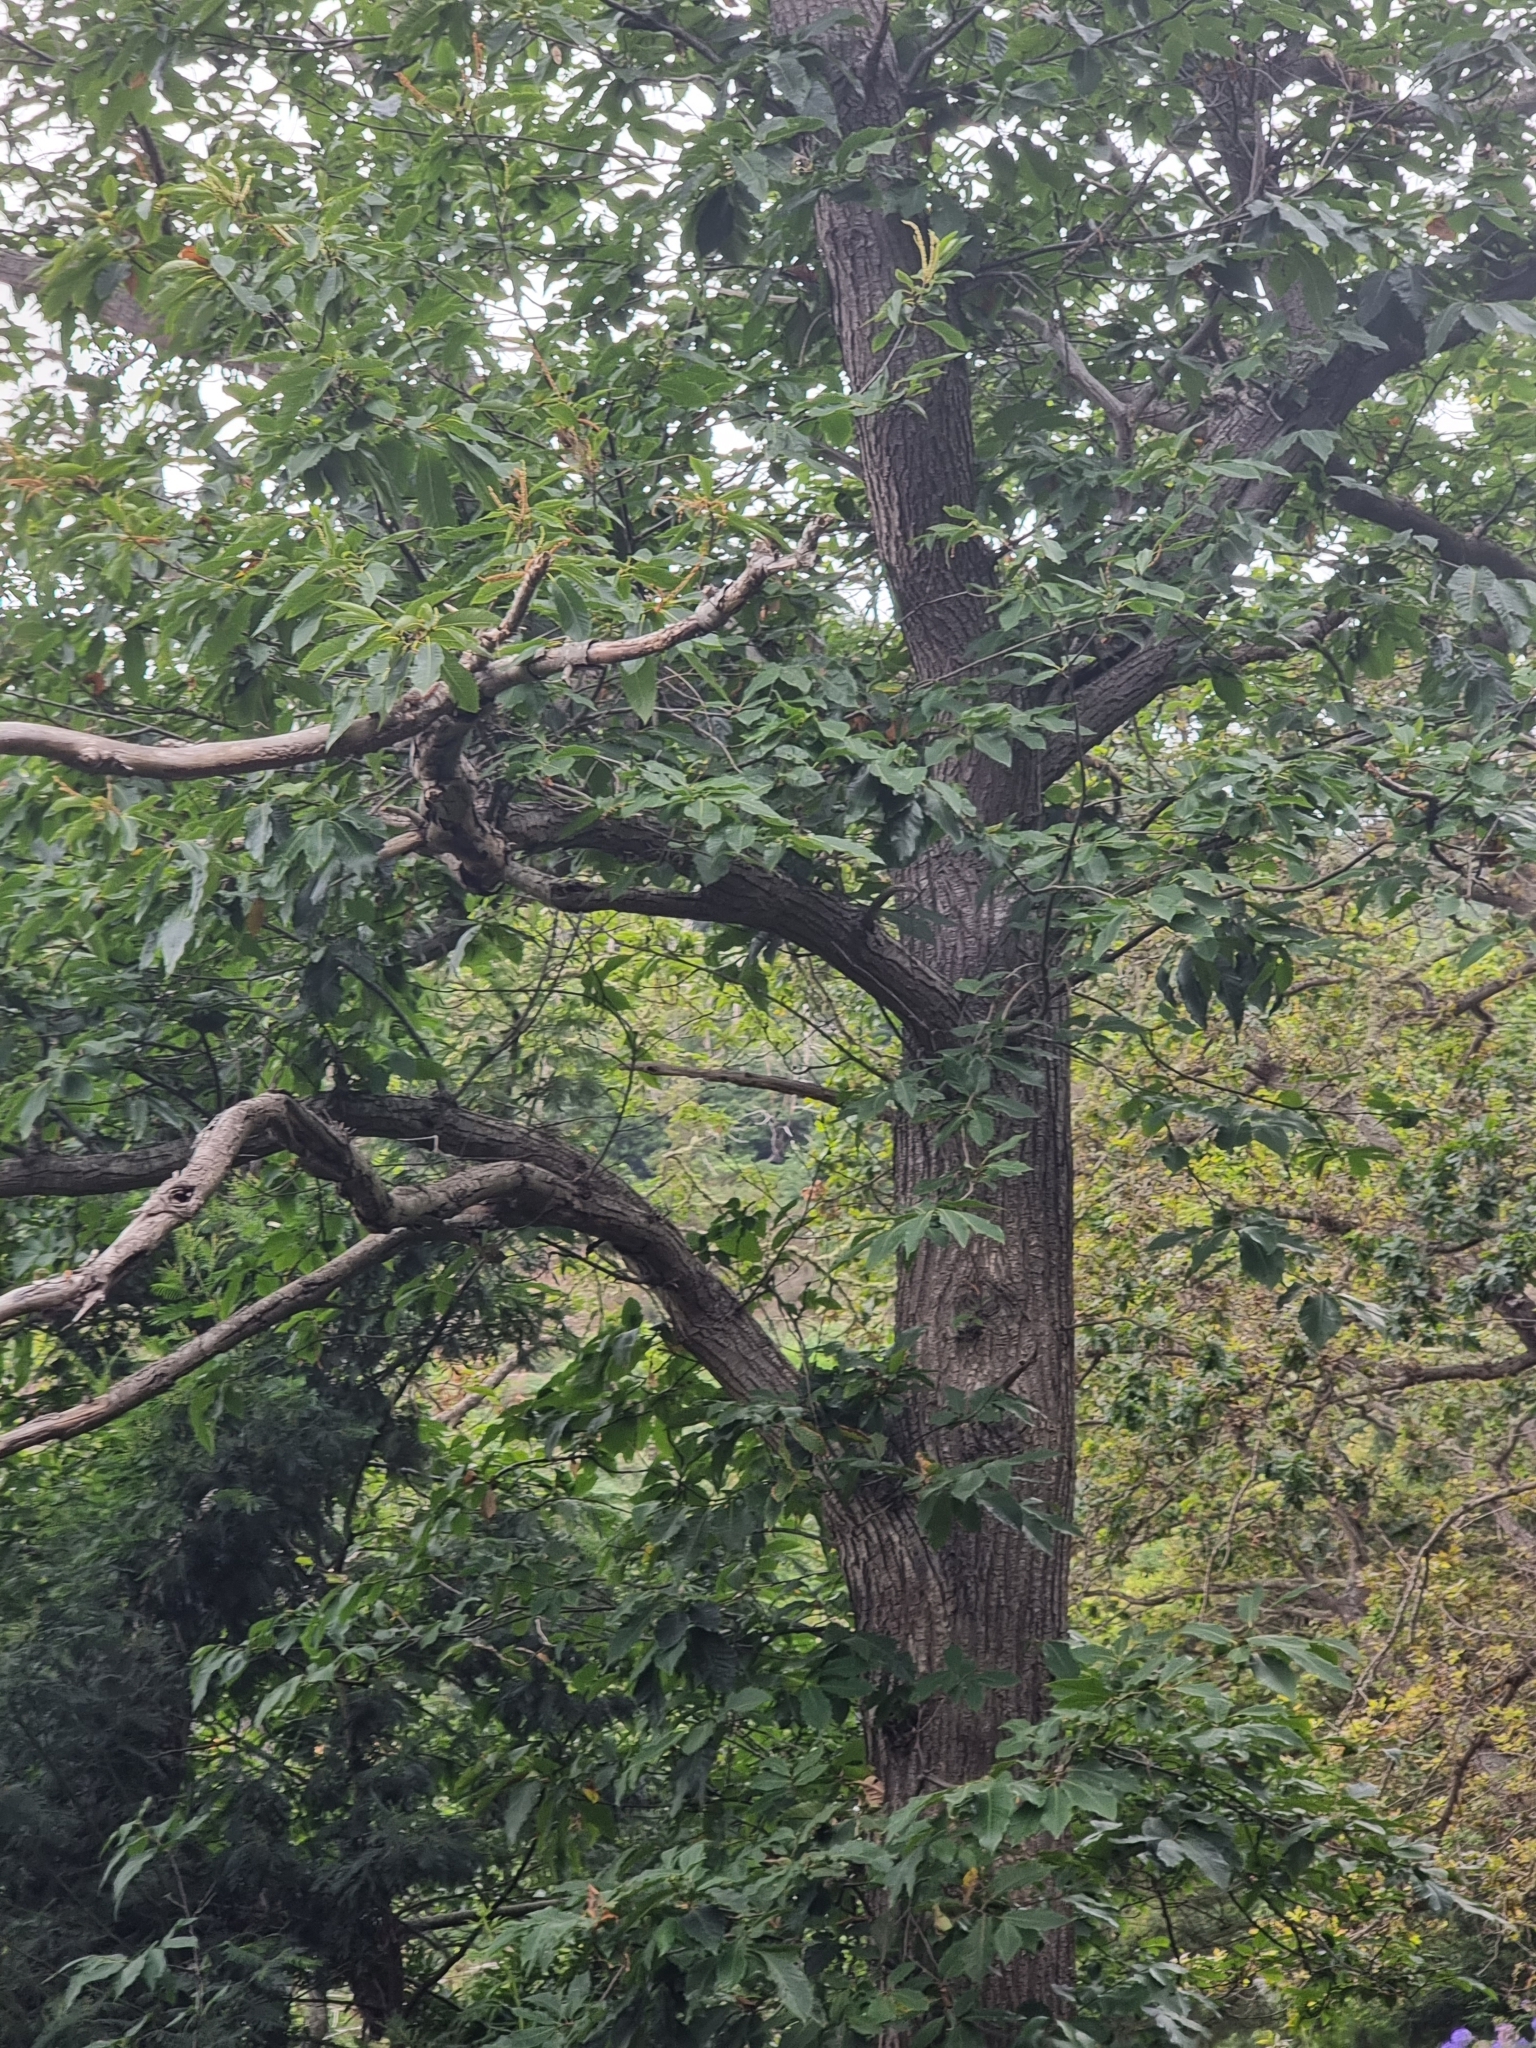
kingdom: Plantae
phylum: Tracheophyta
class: Magnoliopsida
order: Fagales
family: Fagaceae
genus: Castanea
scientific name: Castanea sativa
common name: Sweet chestnut
